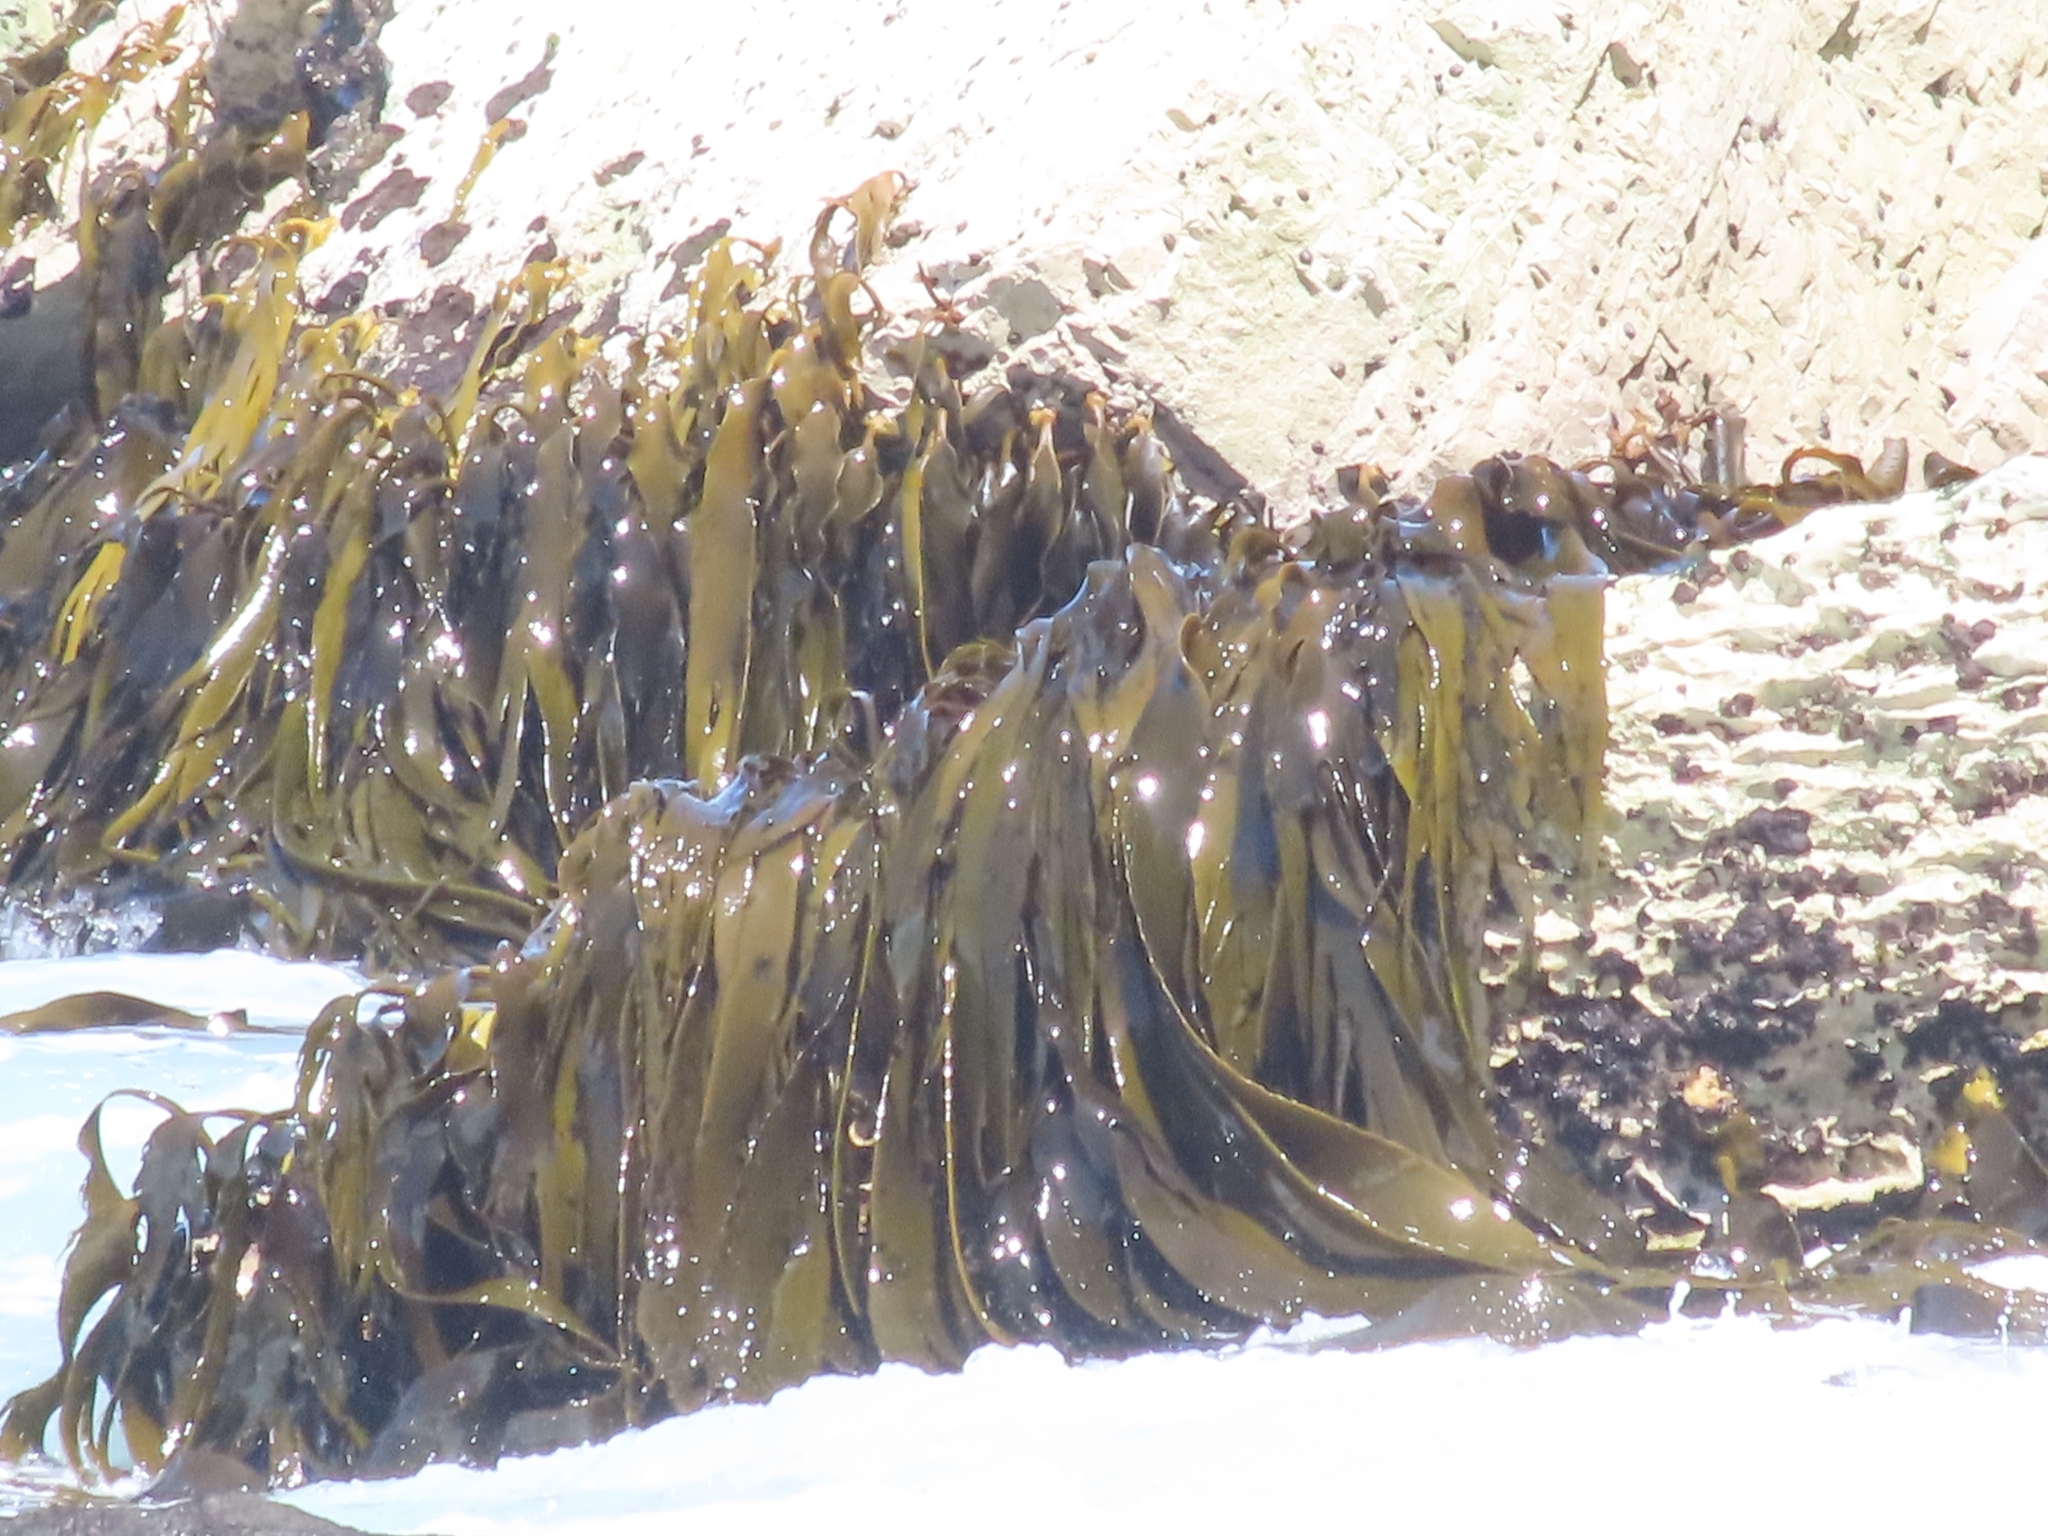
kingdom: Chromista
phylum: Ochrophyta
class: Phaeophyceae
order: Fucales
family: Durvillaeaceae
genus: Durvillaea
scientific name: Durvillaea antarctica
